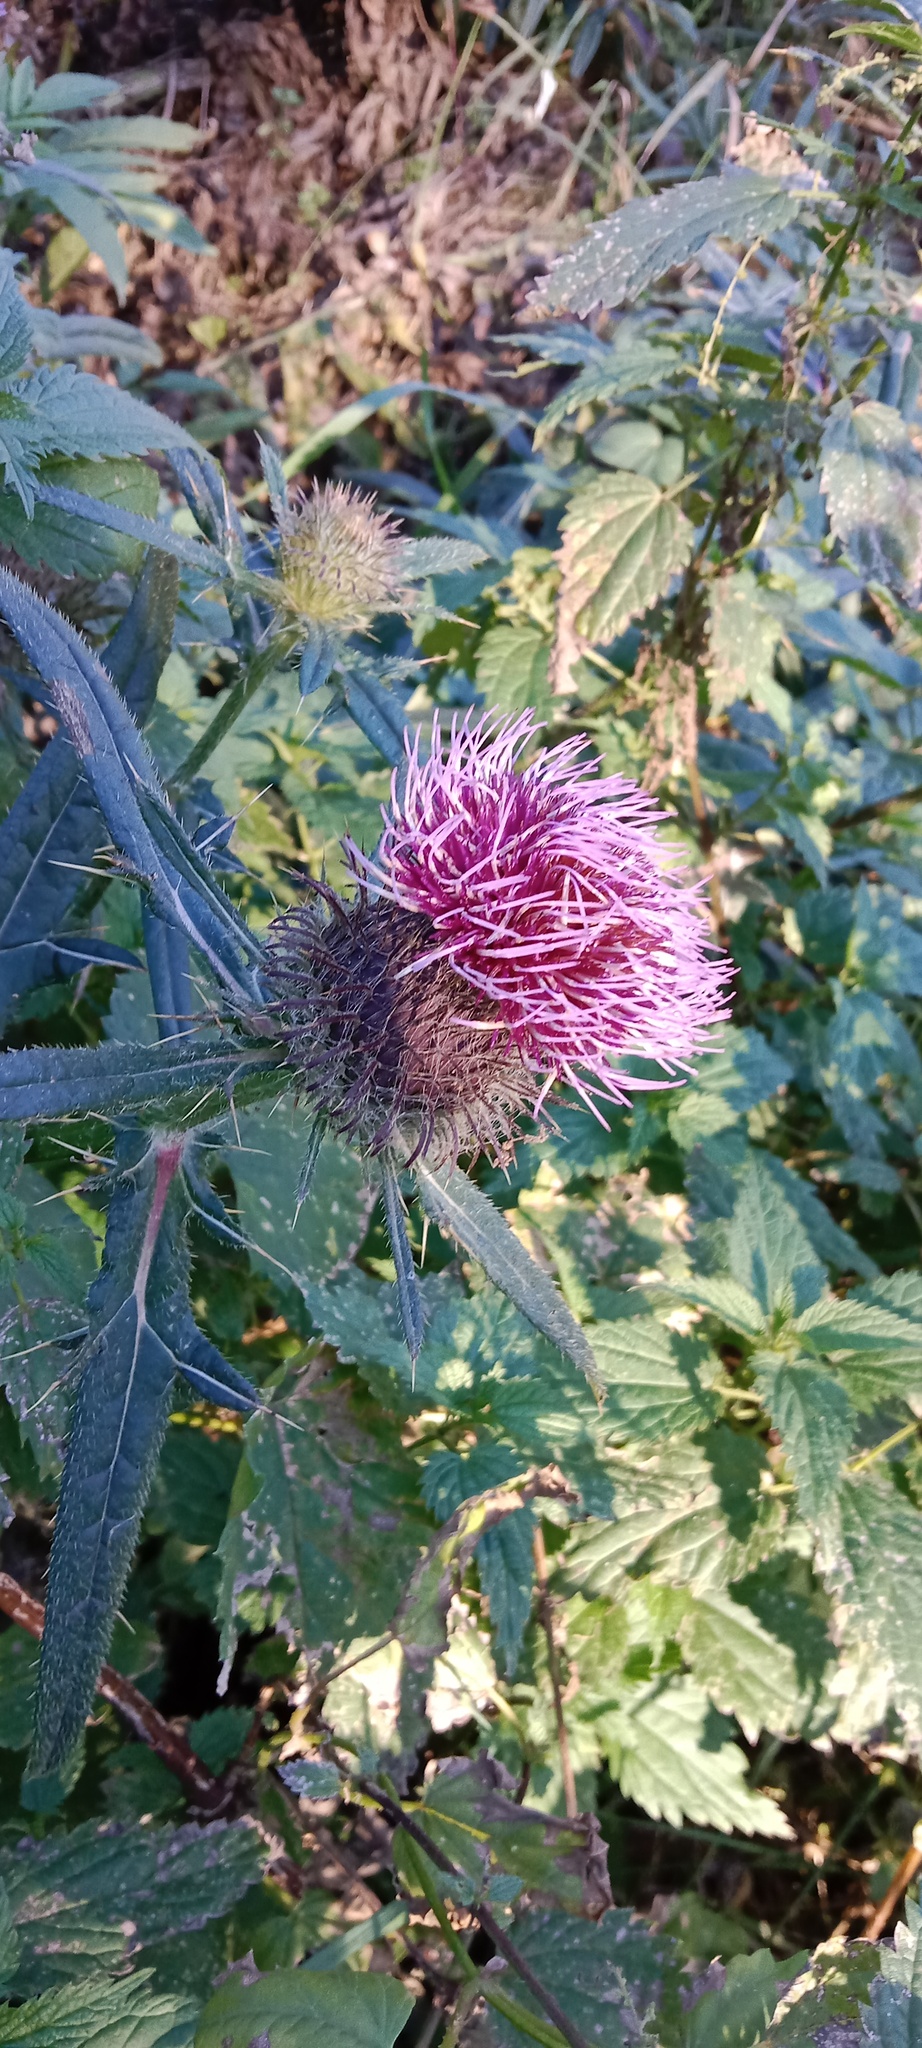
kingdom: Plantae
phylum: Tracheophyta
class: Magnoliopsida
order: Asterales
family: Asteraceae
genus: Lophiolepis
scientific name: Lophiolepis decussata
